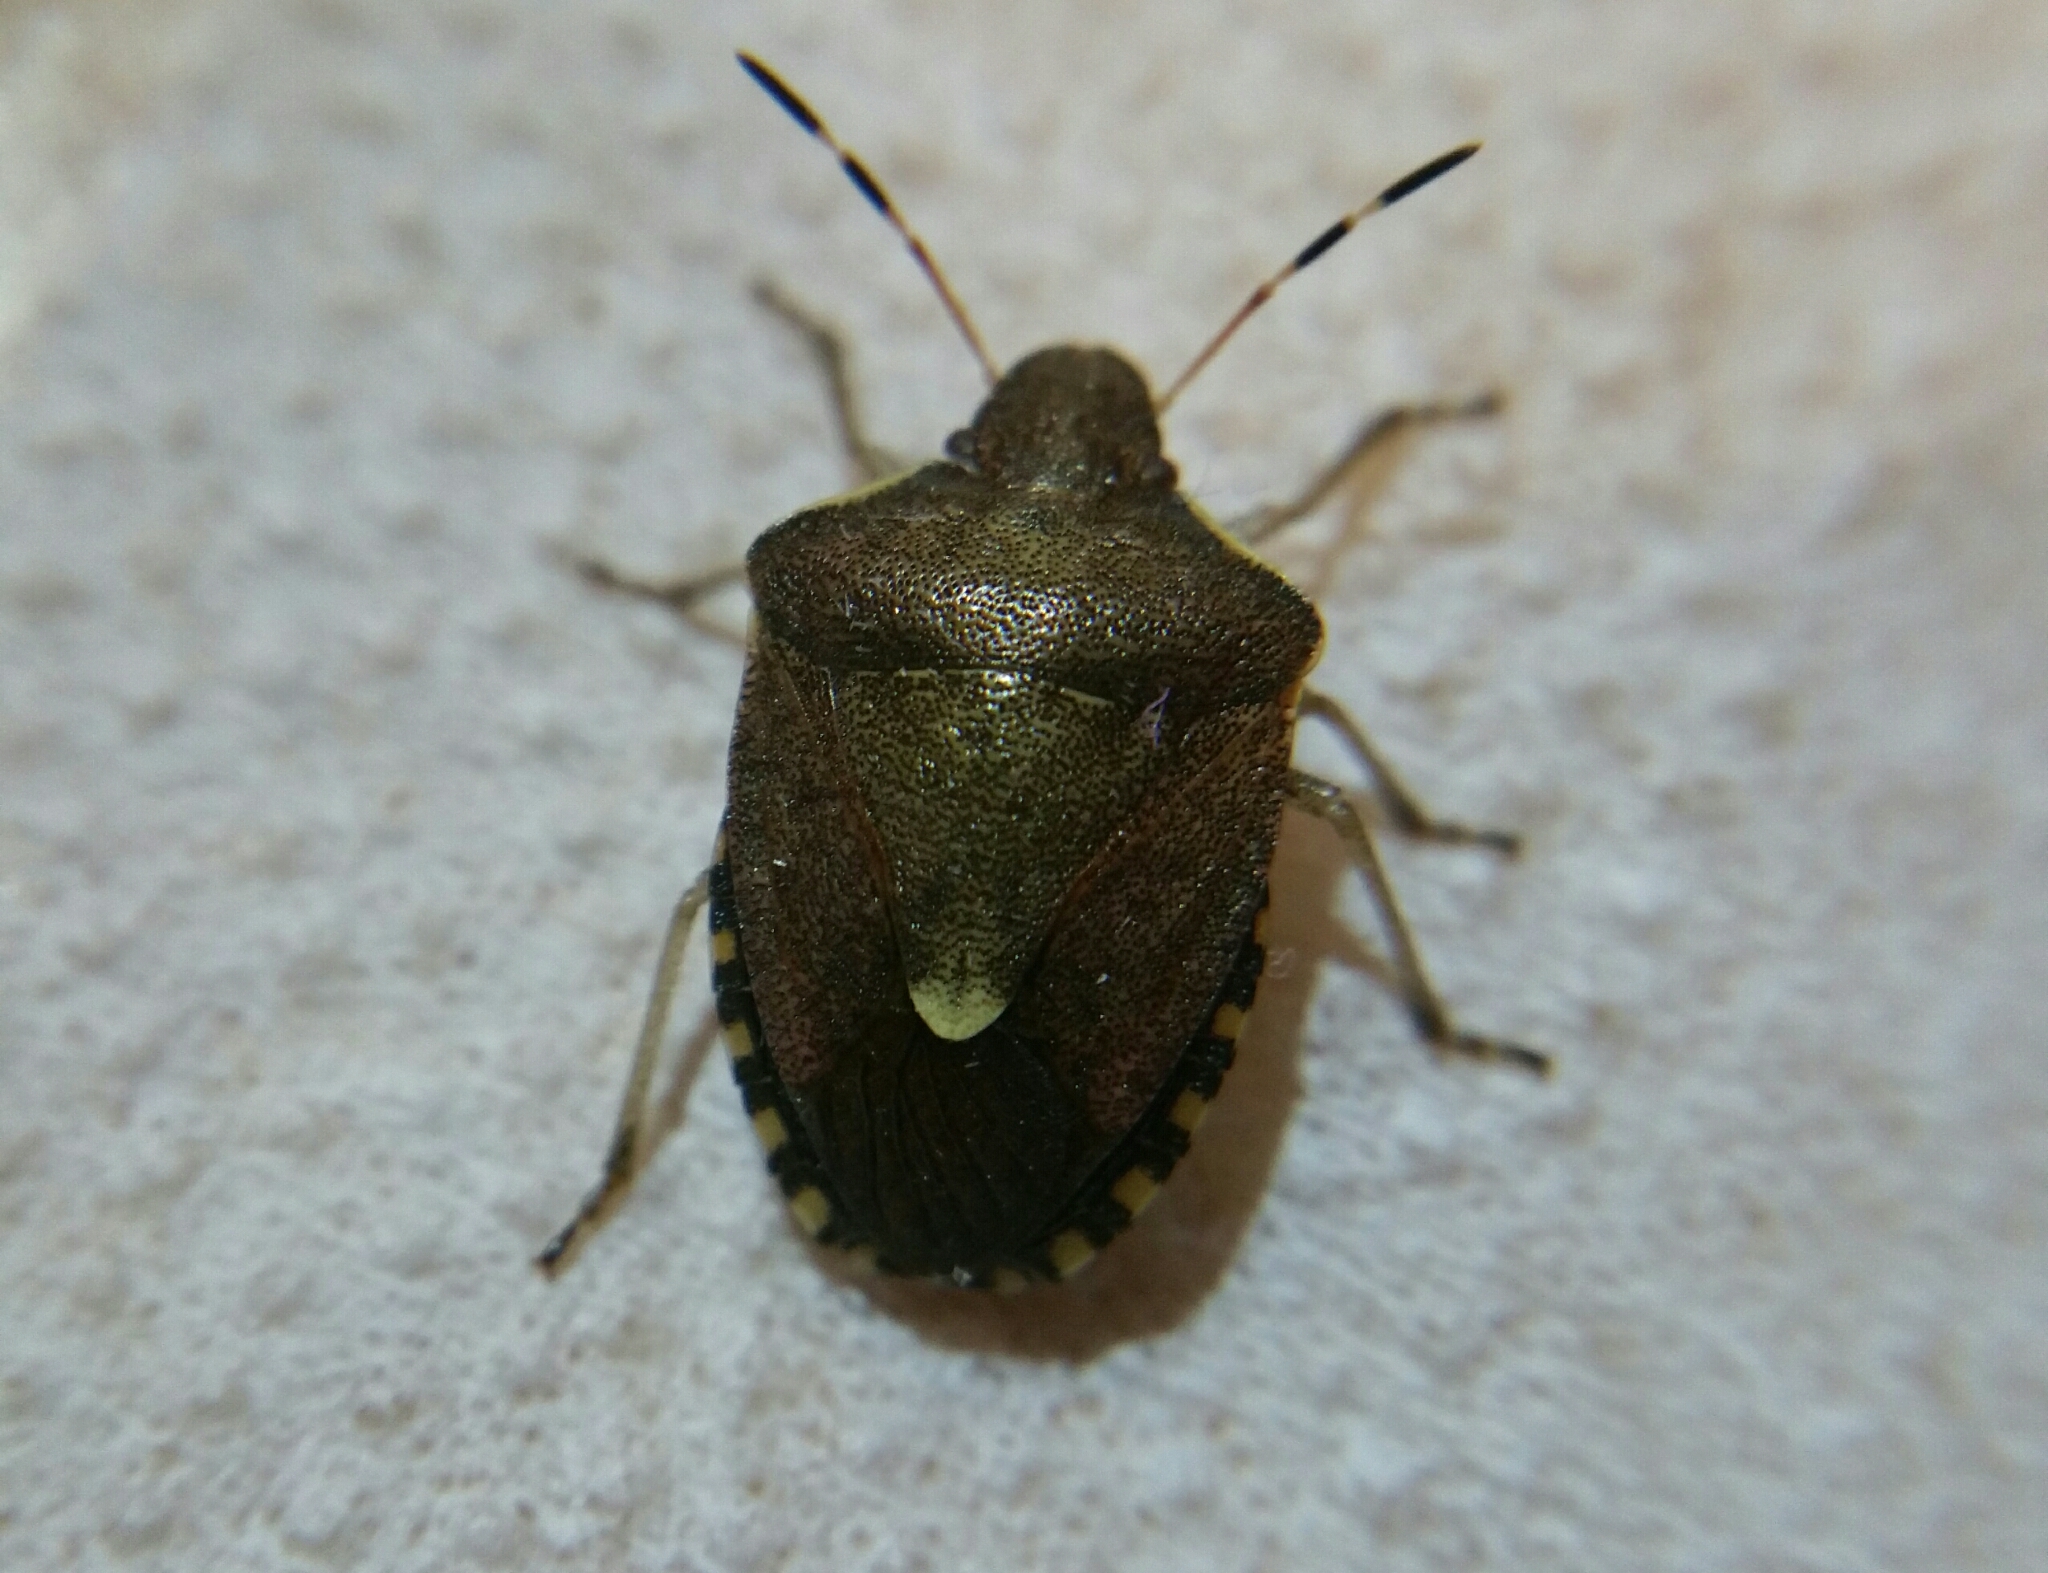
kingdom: Animalia
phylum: Arthropoda
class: Insecta
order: Hemiptera
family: Pentatomidae
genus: Holcostethus
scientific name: Holcostethus strictus
